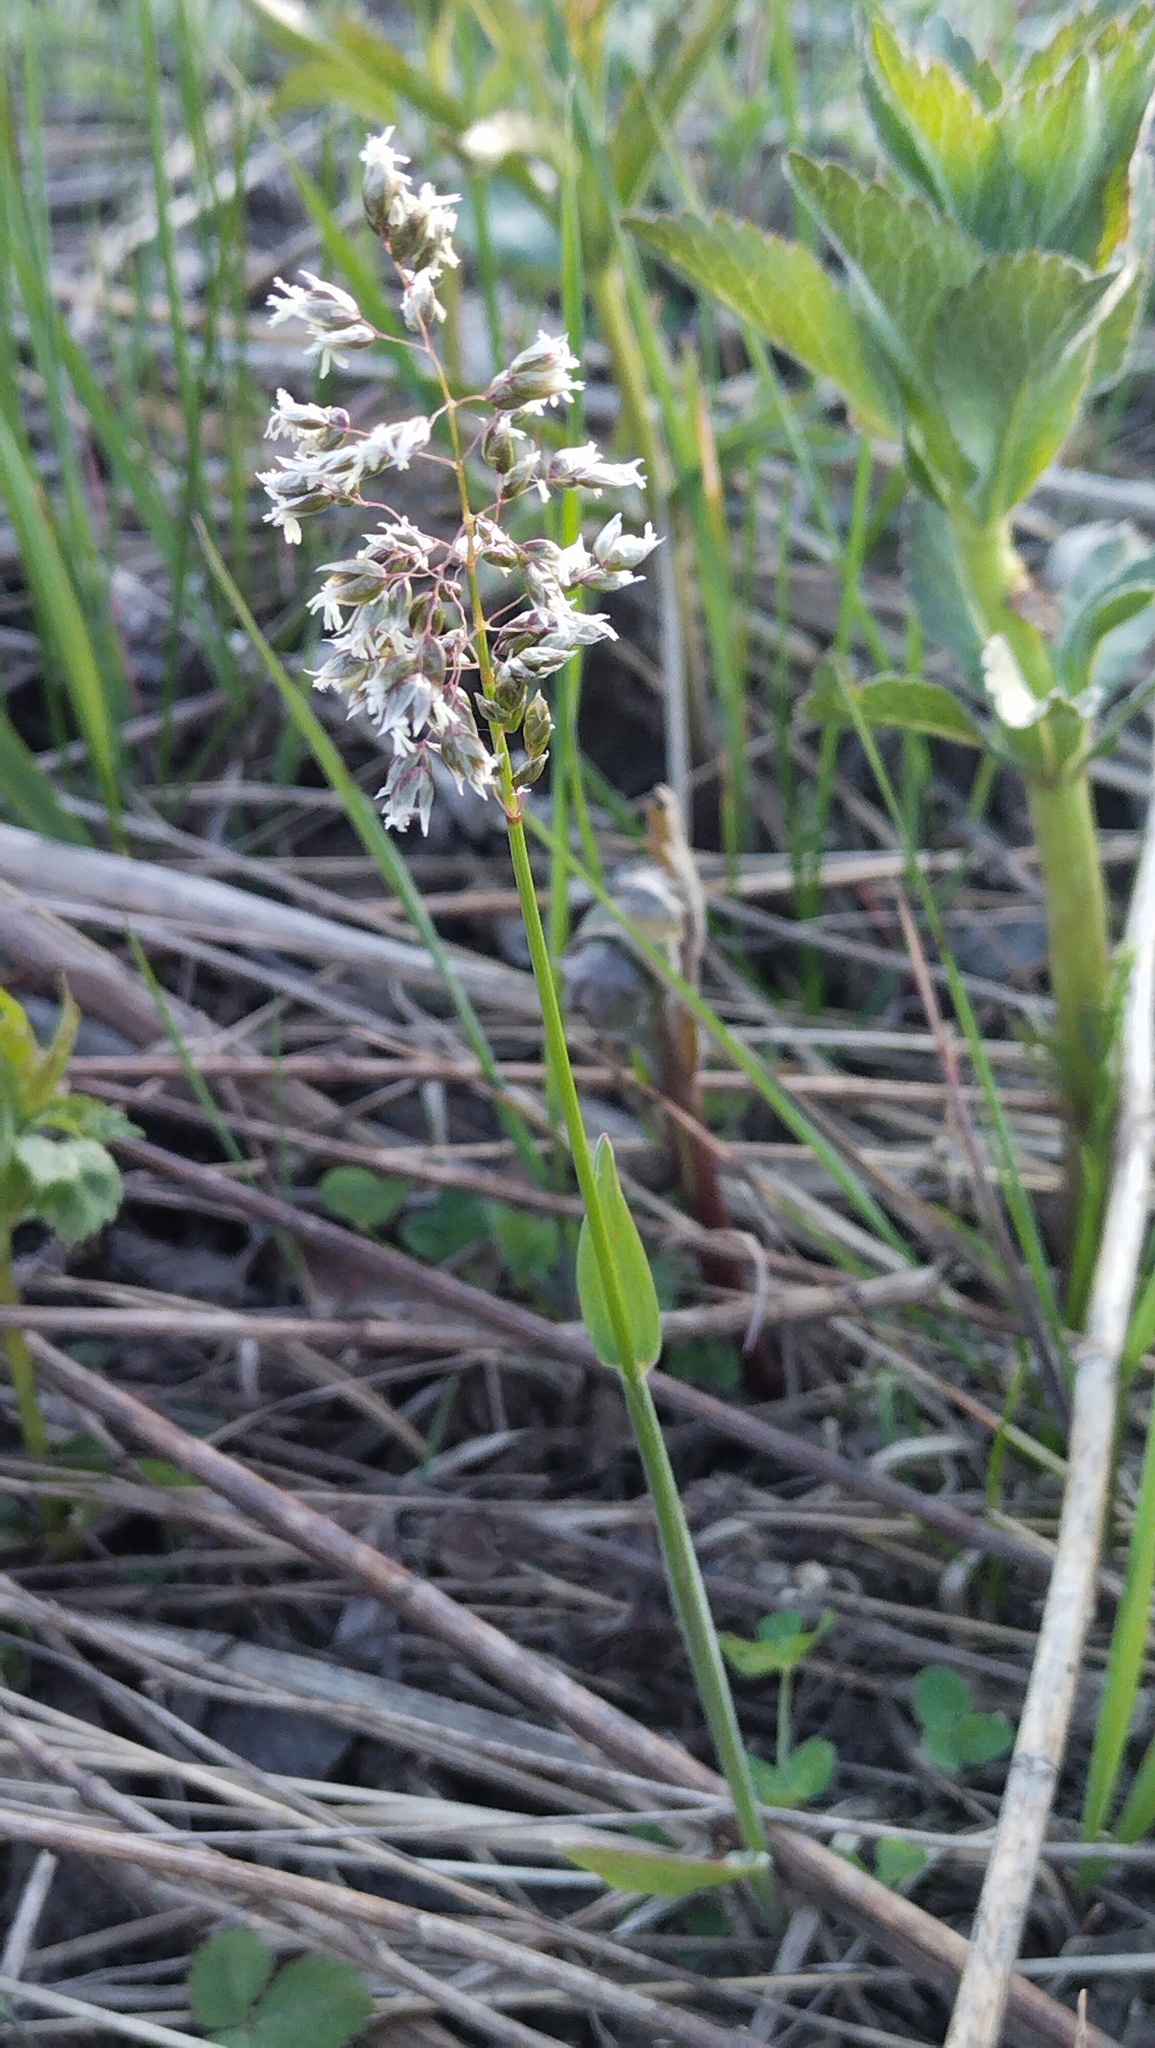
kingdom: Plantae
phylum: Tracheophyta
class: Liliopsida
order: Poales
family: Poaceae
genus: Anthoxanthum
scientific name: Anthoxanthum glabrum
